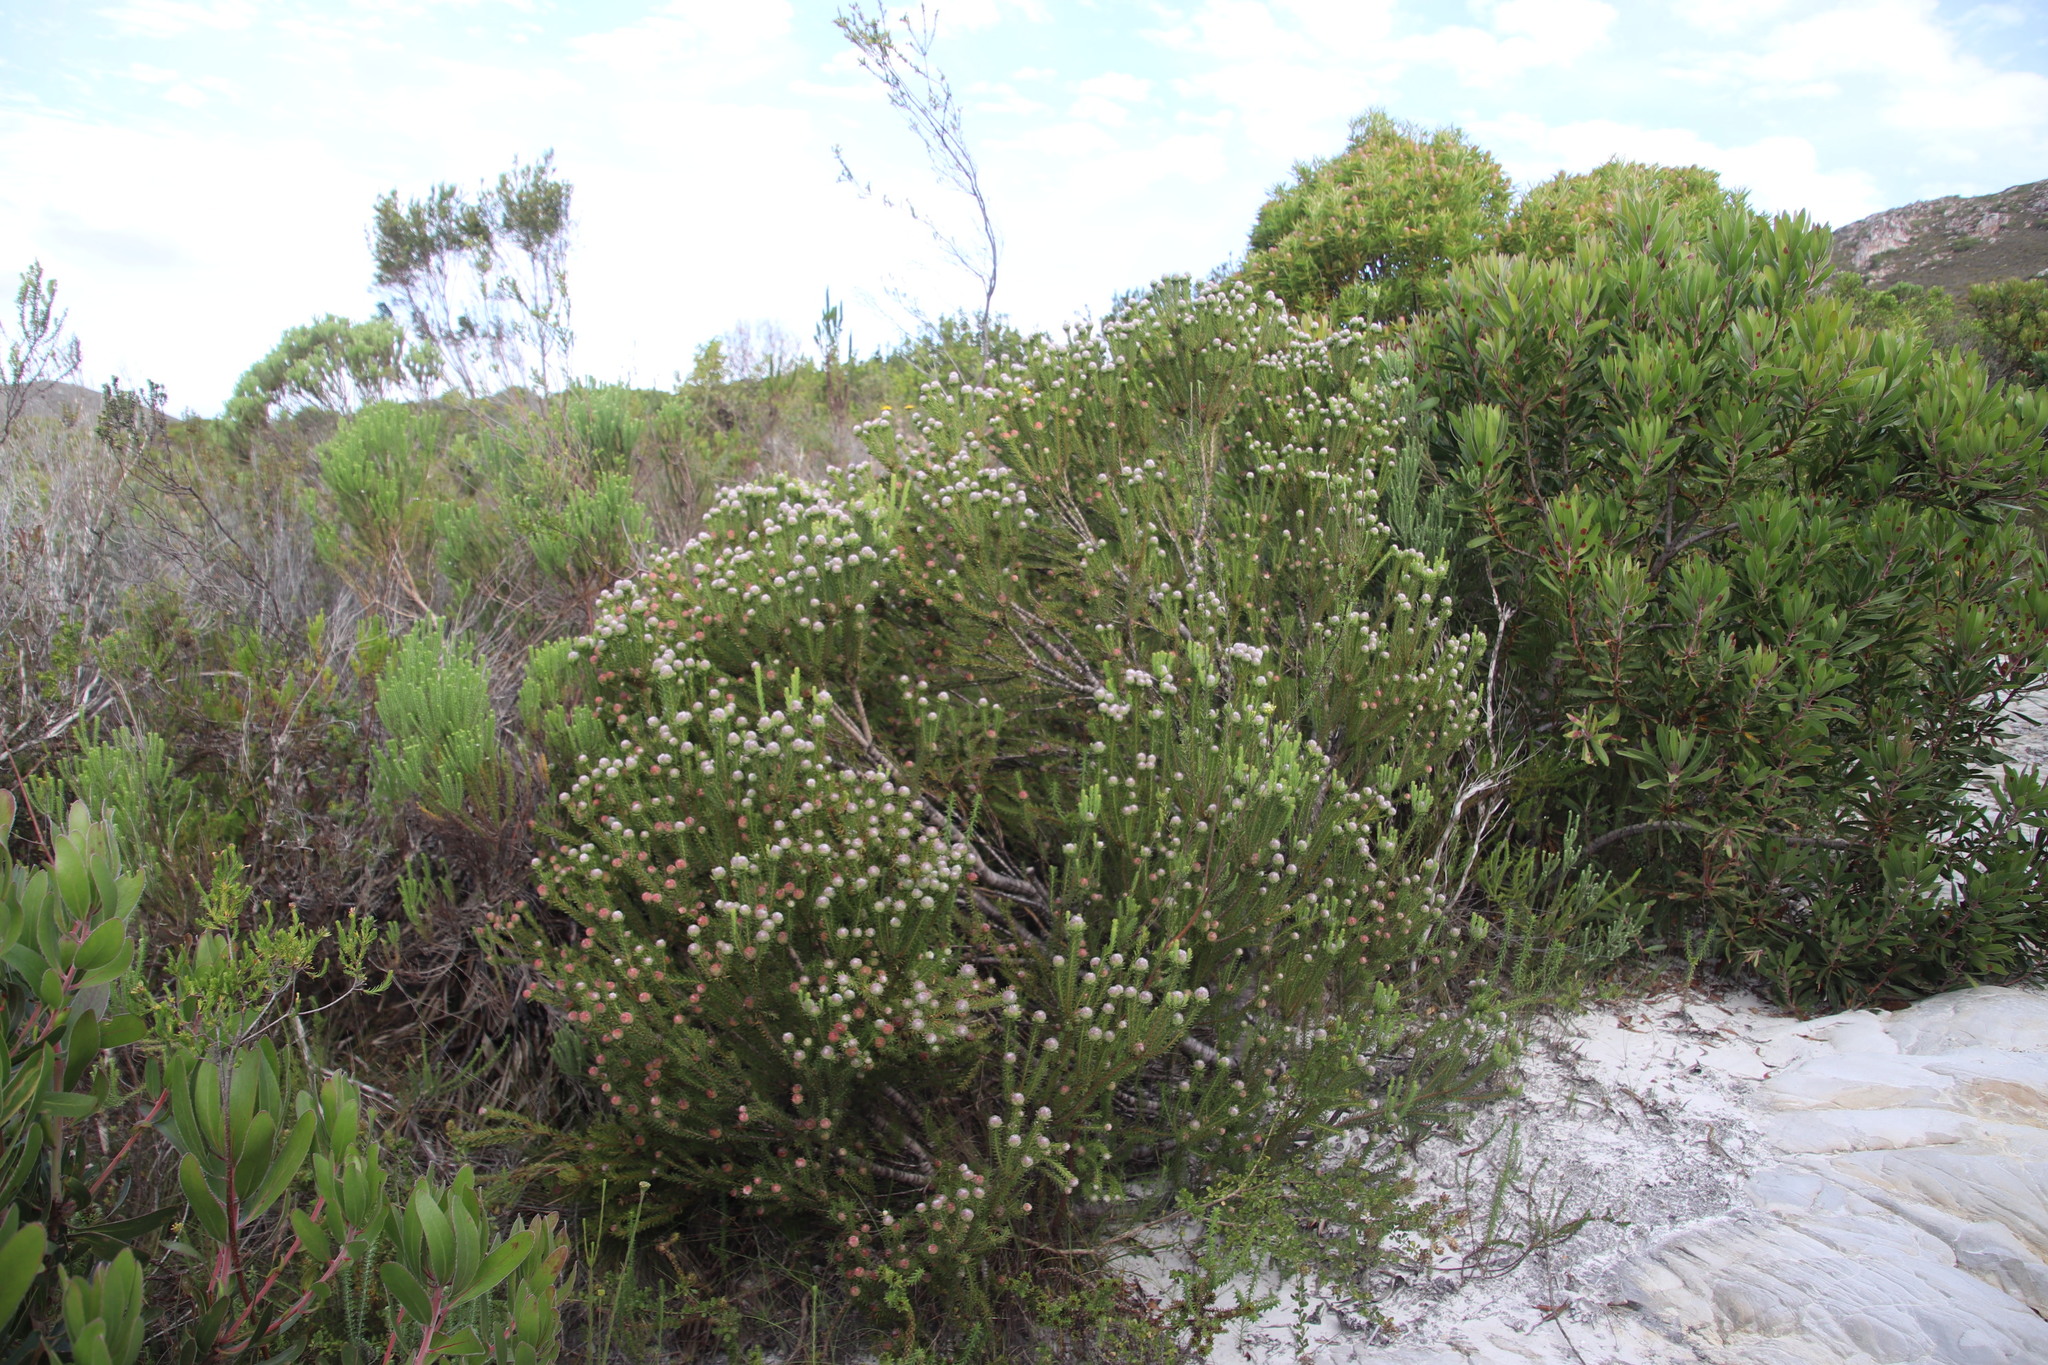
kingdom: Plantae
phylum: Tracheophyta
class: Magnoliopsida
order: Proteales
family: Proteaceae
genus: Leucadendron
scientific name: Leucadendron linifolium
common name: Line-leaf conebush
